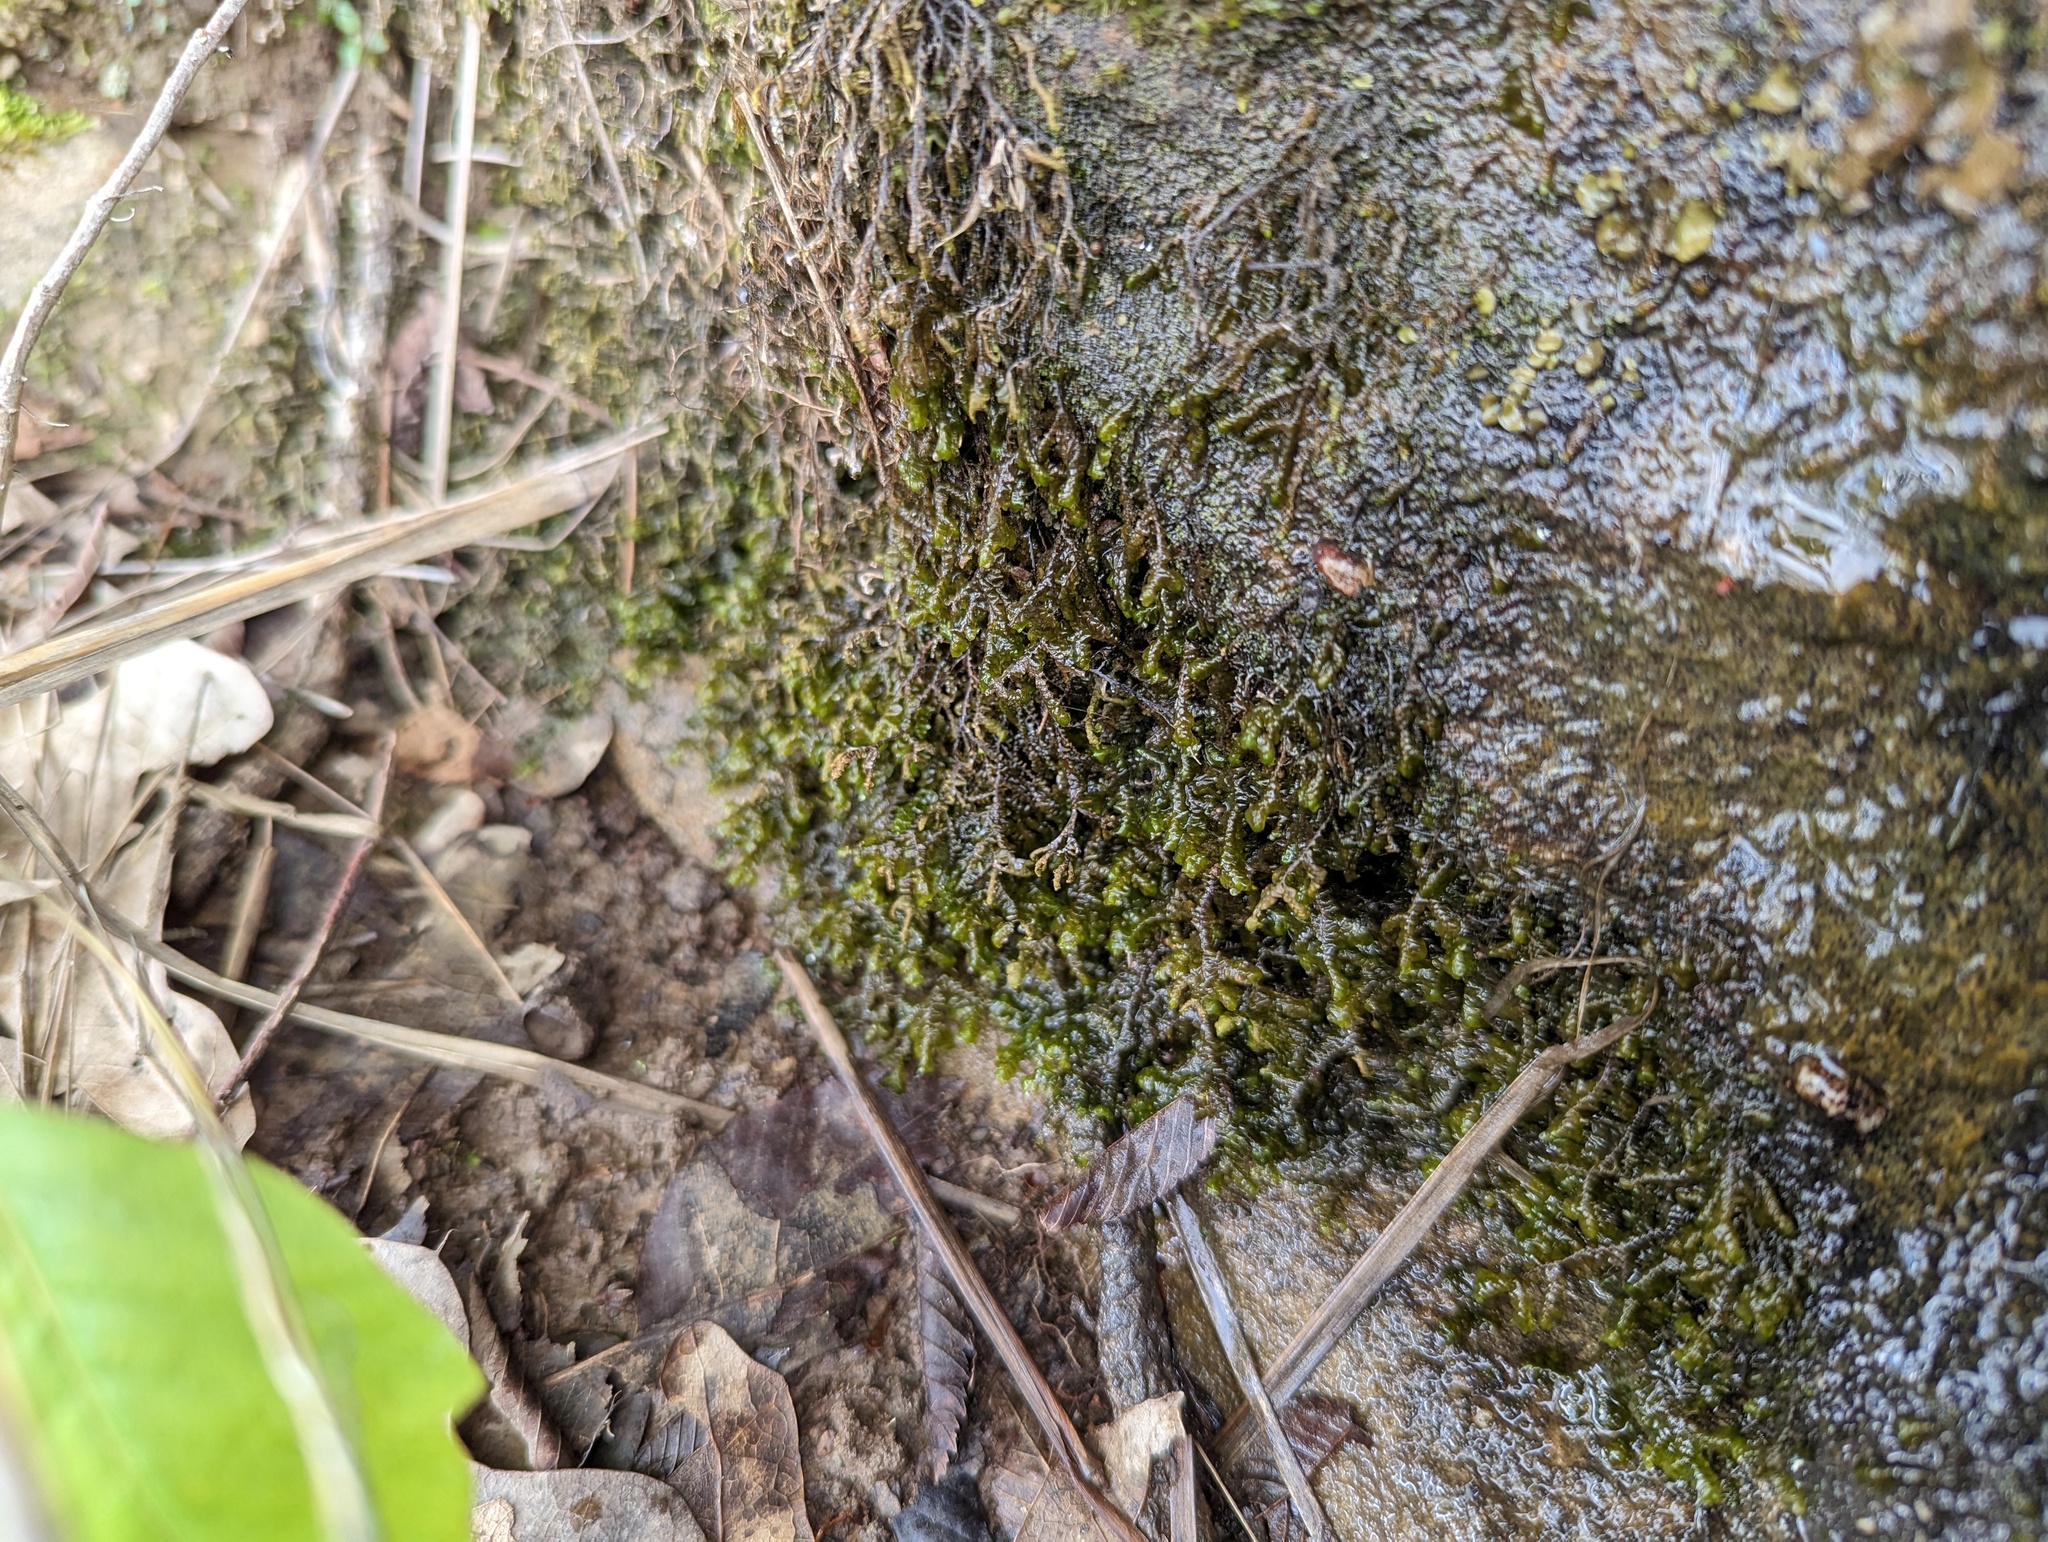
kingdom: Plantae
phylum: Marchantiophyta
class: Jungermanniopsida
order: Porellales
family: Porellaceae
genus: Porella
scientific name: Porella pinnata
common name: Pinnate scalewort
